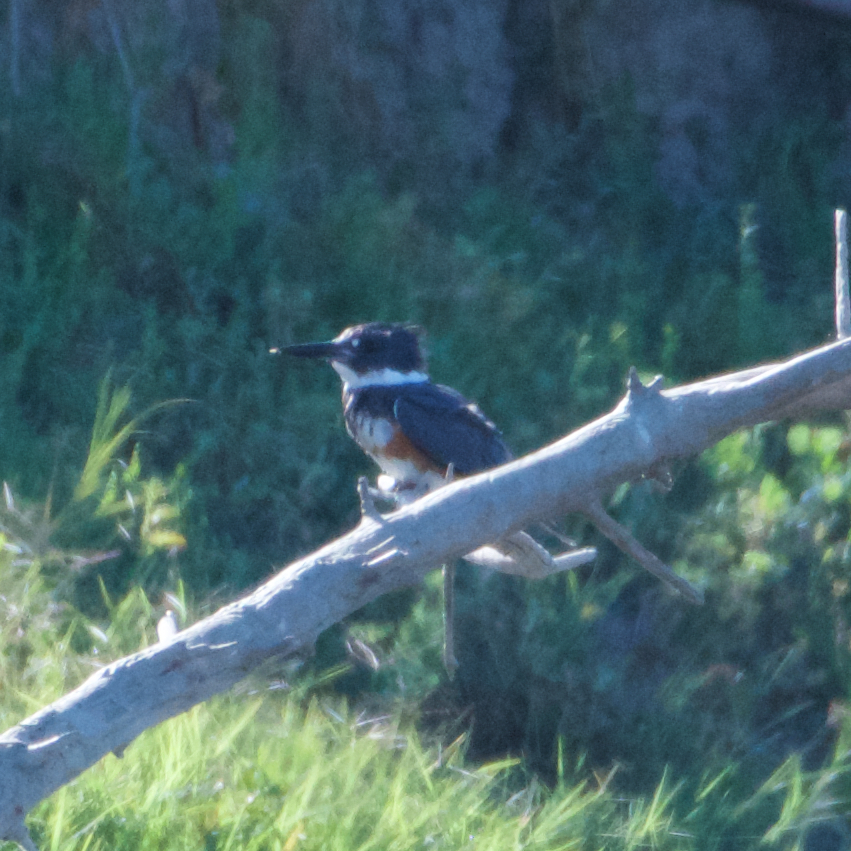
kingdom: Animalia
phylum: Chordata
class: Aves
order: Coraciiformes
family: Alcedinidae
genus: Megaceryle
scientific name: Megaceryle alcyon
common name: Belted kingfisher
